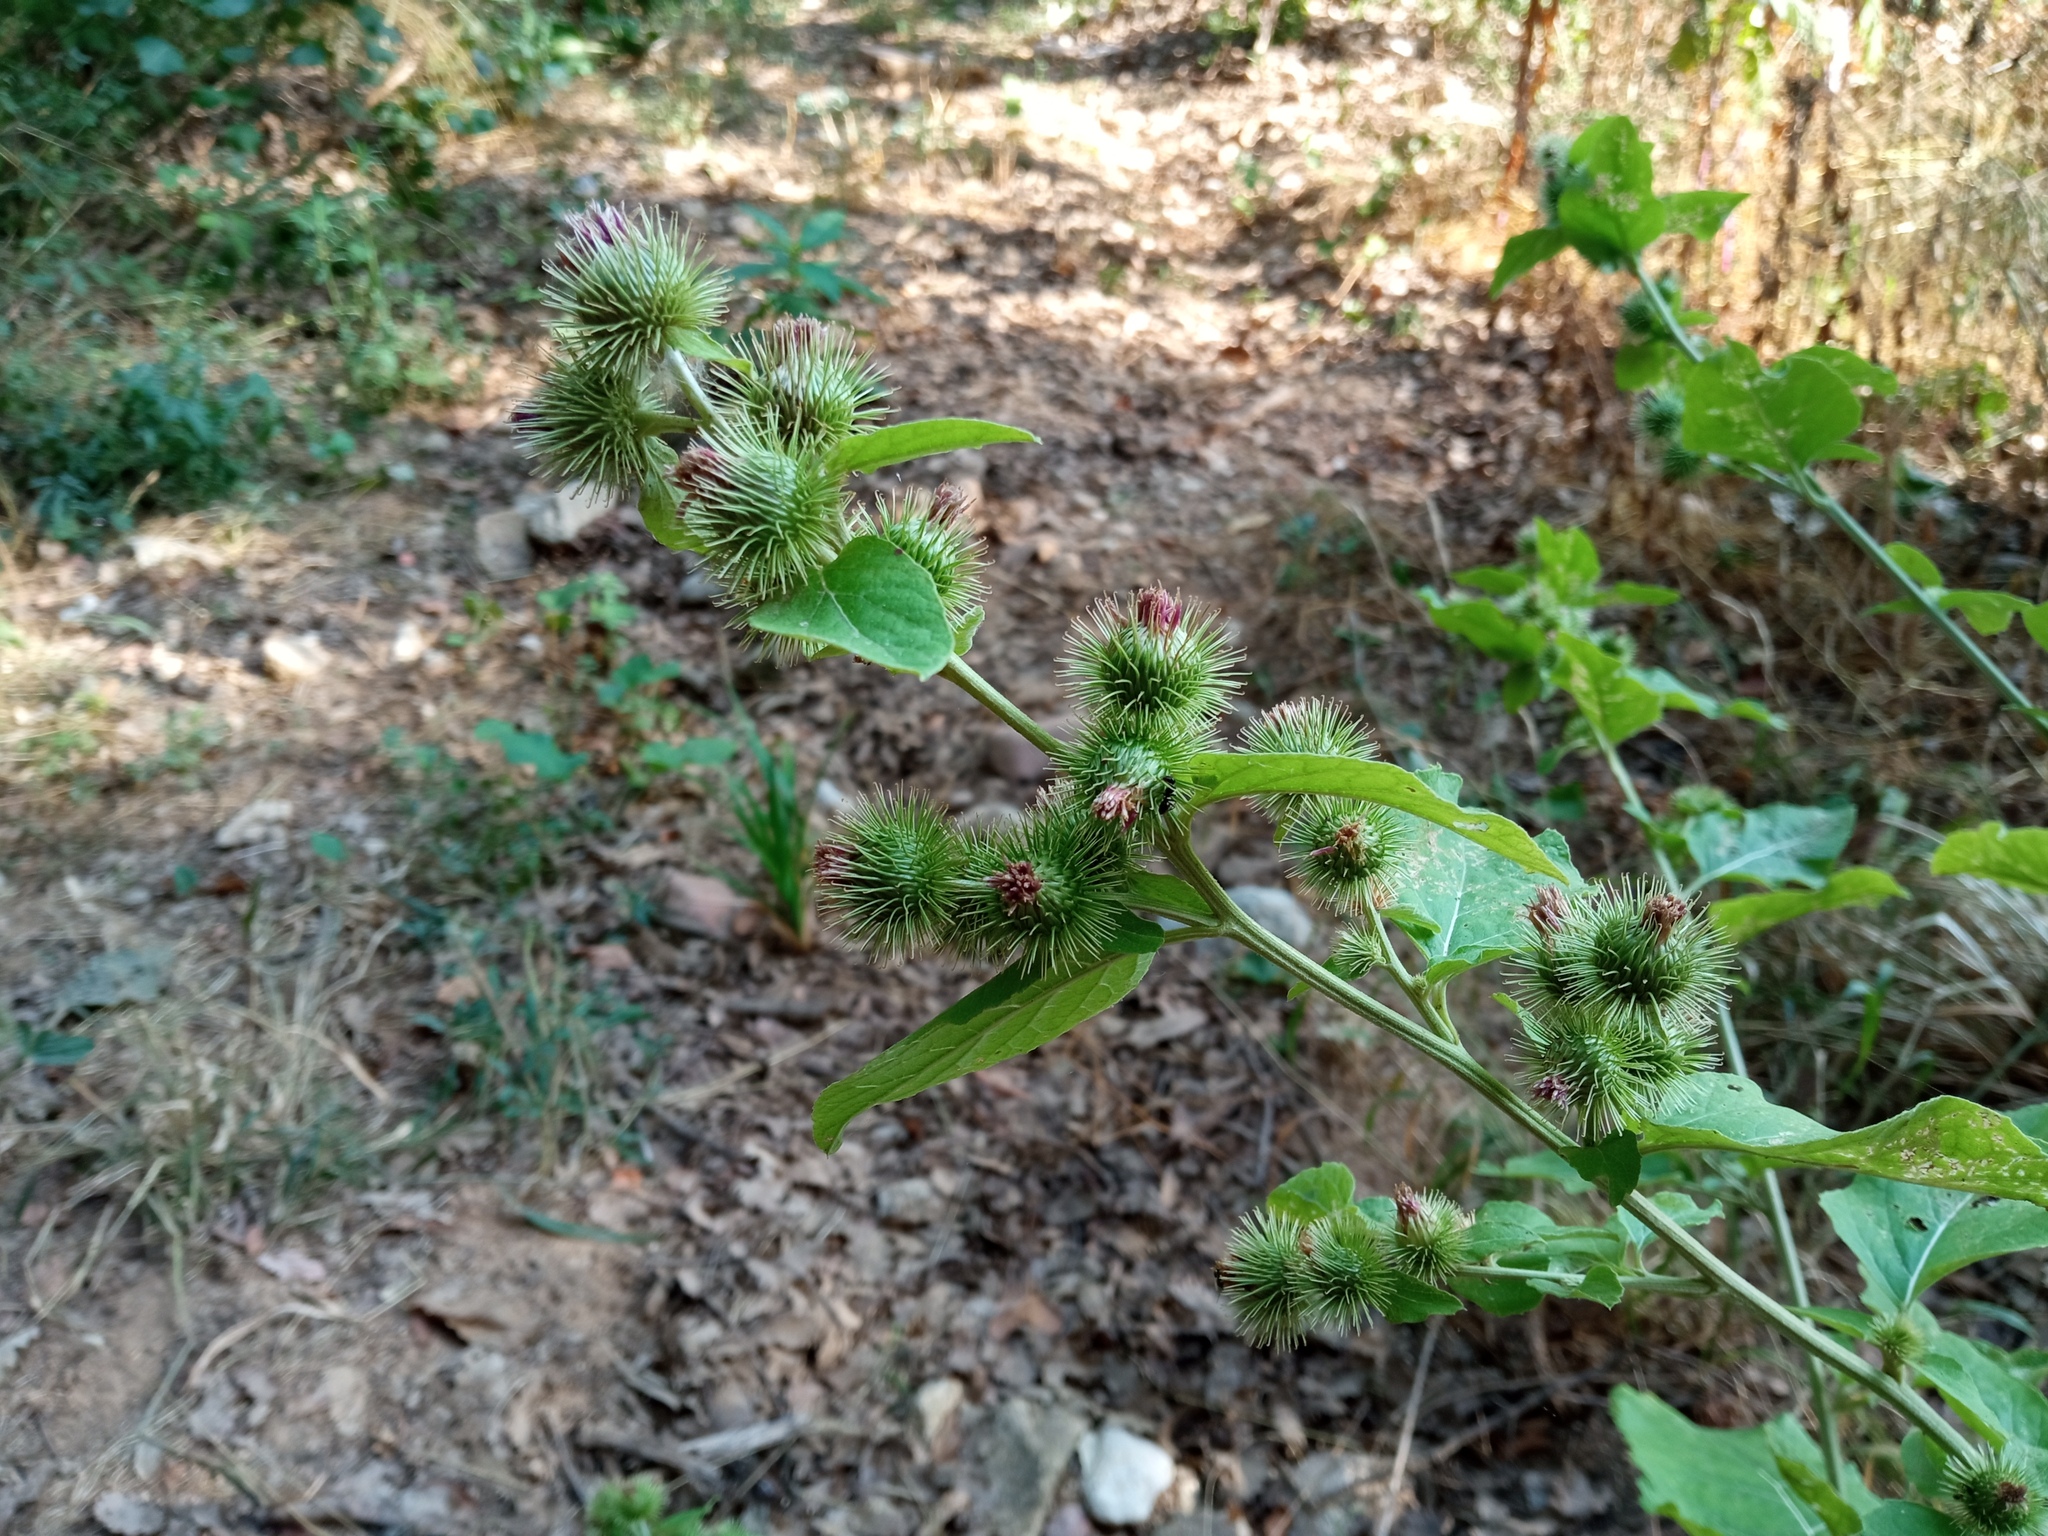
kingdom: Plantae
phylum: Tracheophyta
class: Magnoliopsida
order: Asterales
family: Asteraceae
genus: Arctium
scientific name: Arctium minus
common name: Lesser burdock
